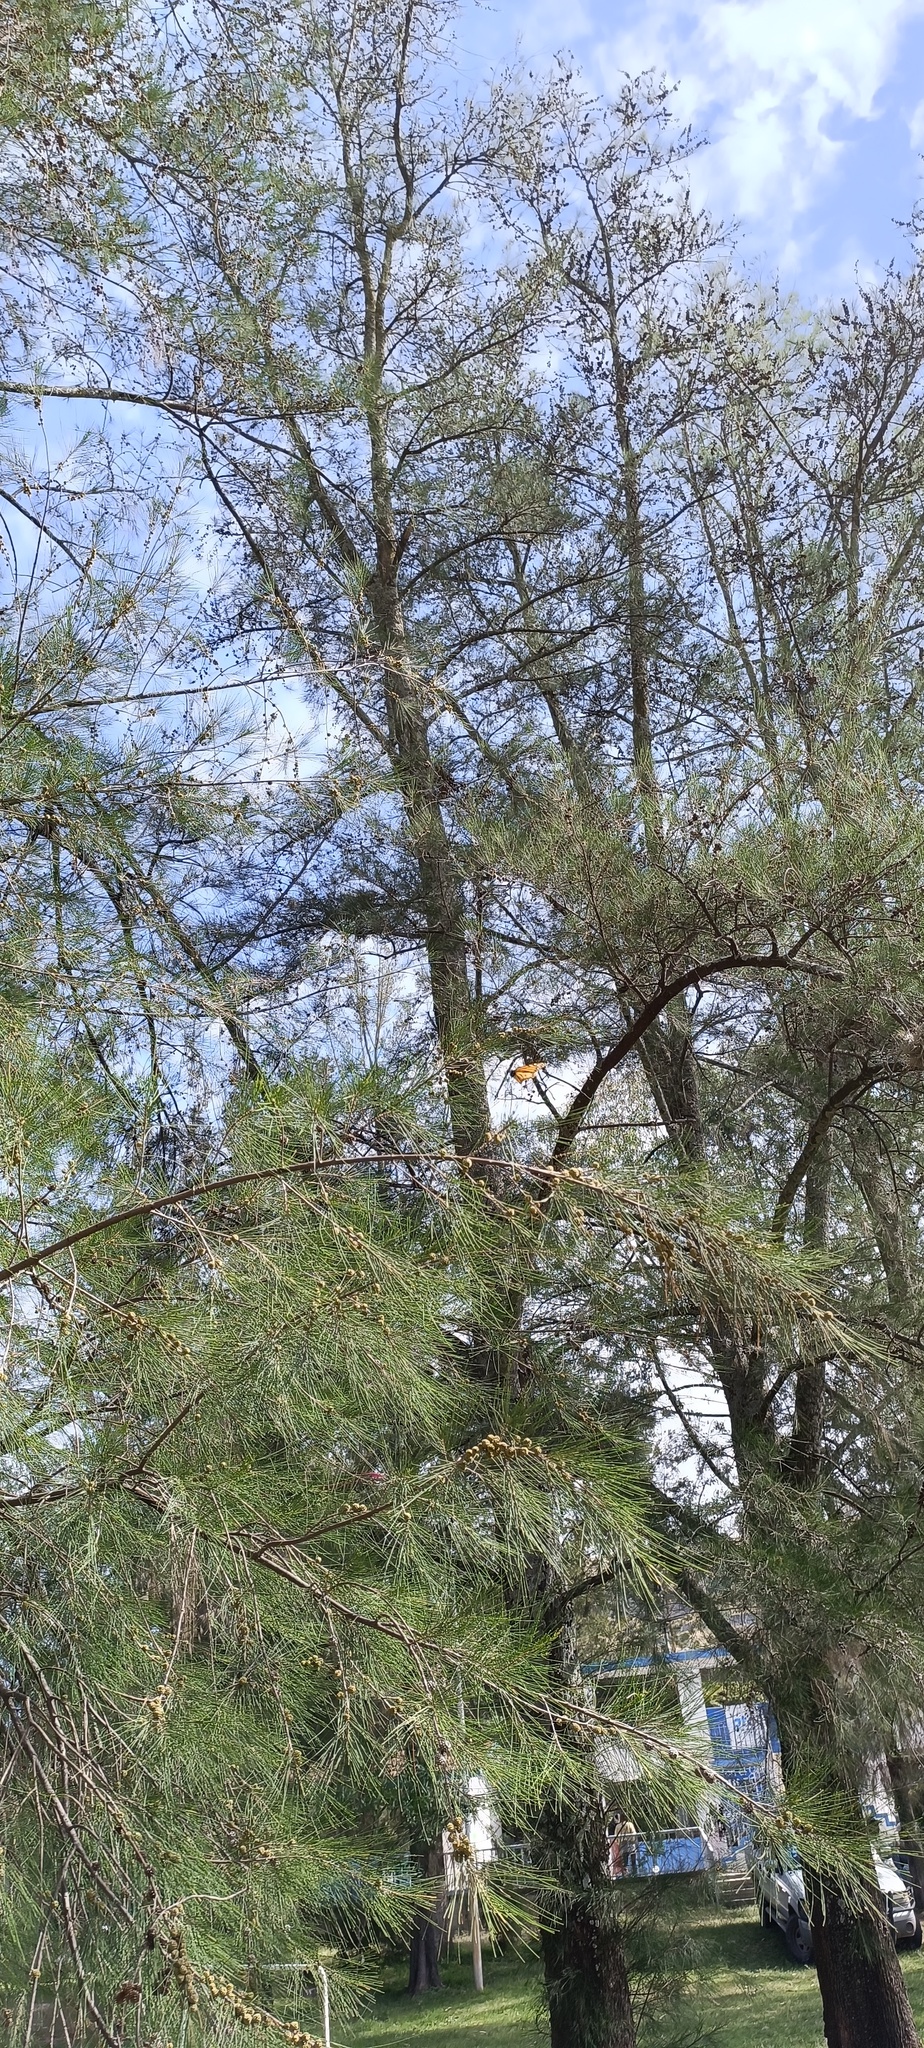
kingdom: Animalia
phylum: Arthropoda
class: Insecta
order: Lepidoptera
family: Nymphalidae
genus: Danaus
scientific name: Danaus plexippus
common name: Monarch
